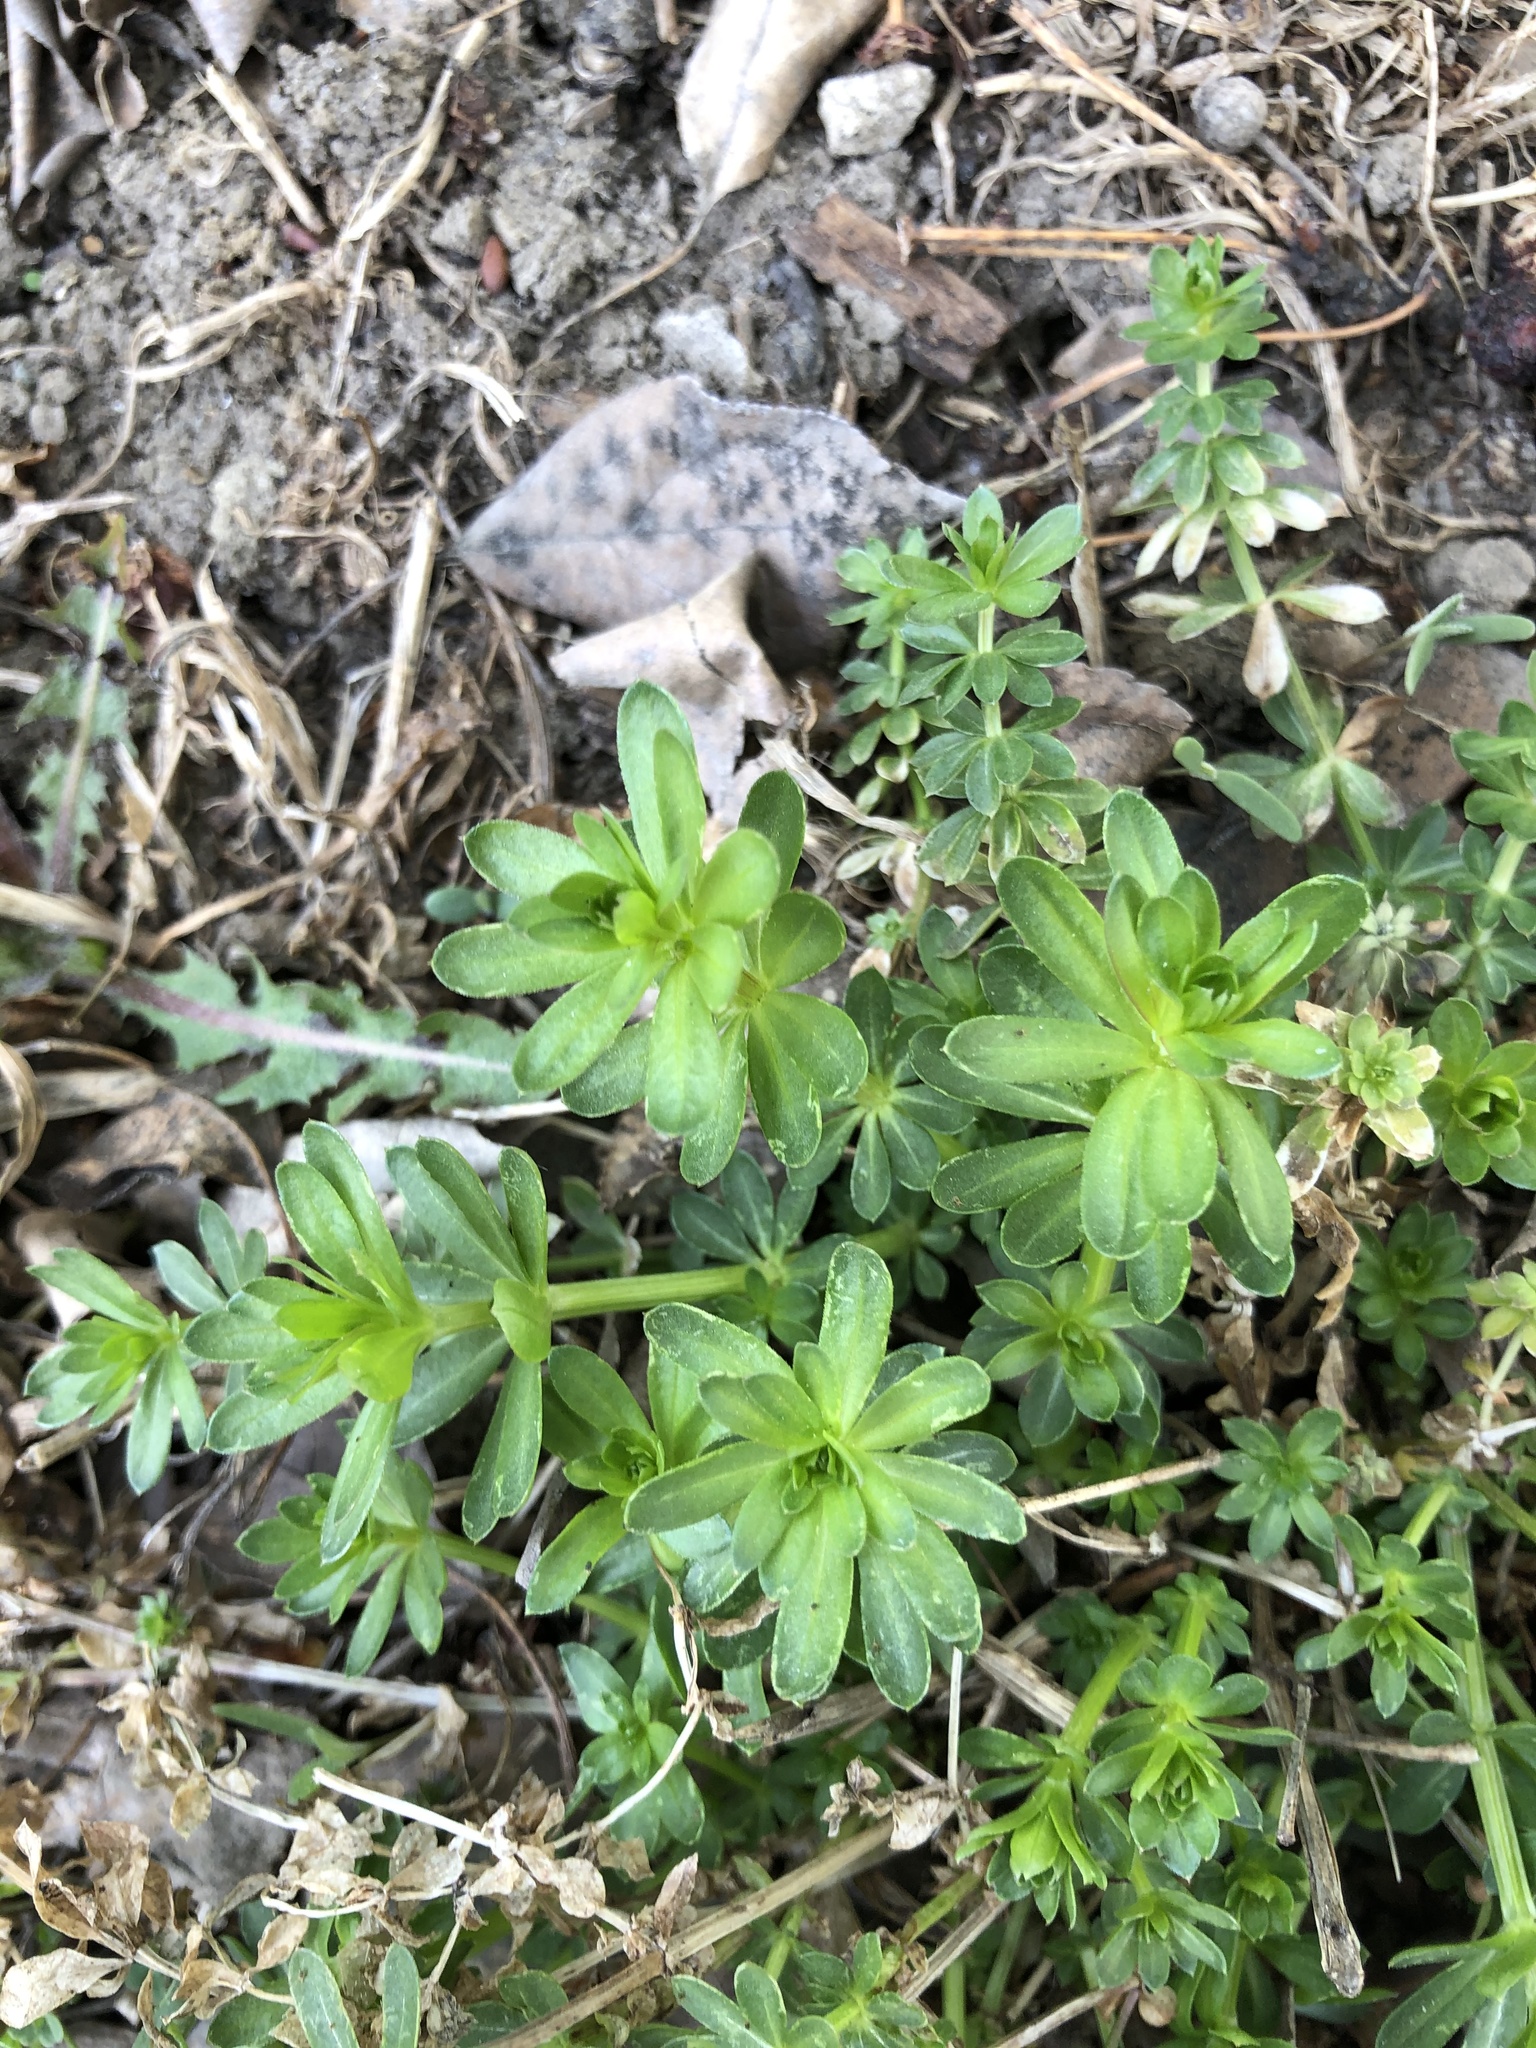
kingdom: Plantae
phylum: Tracheophyta
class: Magnoliopsida
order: Gentianales
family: Rubiaceae
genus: Galium
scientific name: Galium mollugo
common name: Hedge bedstraw
